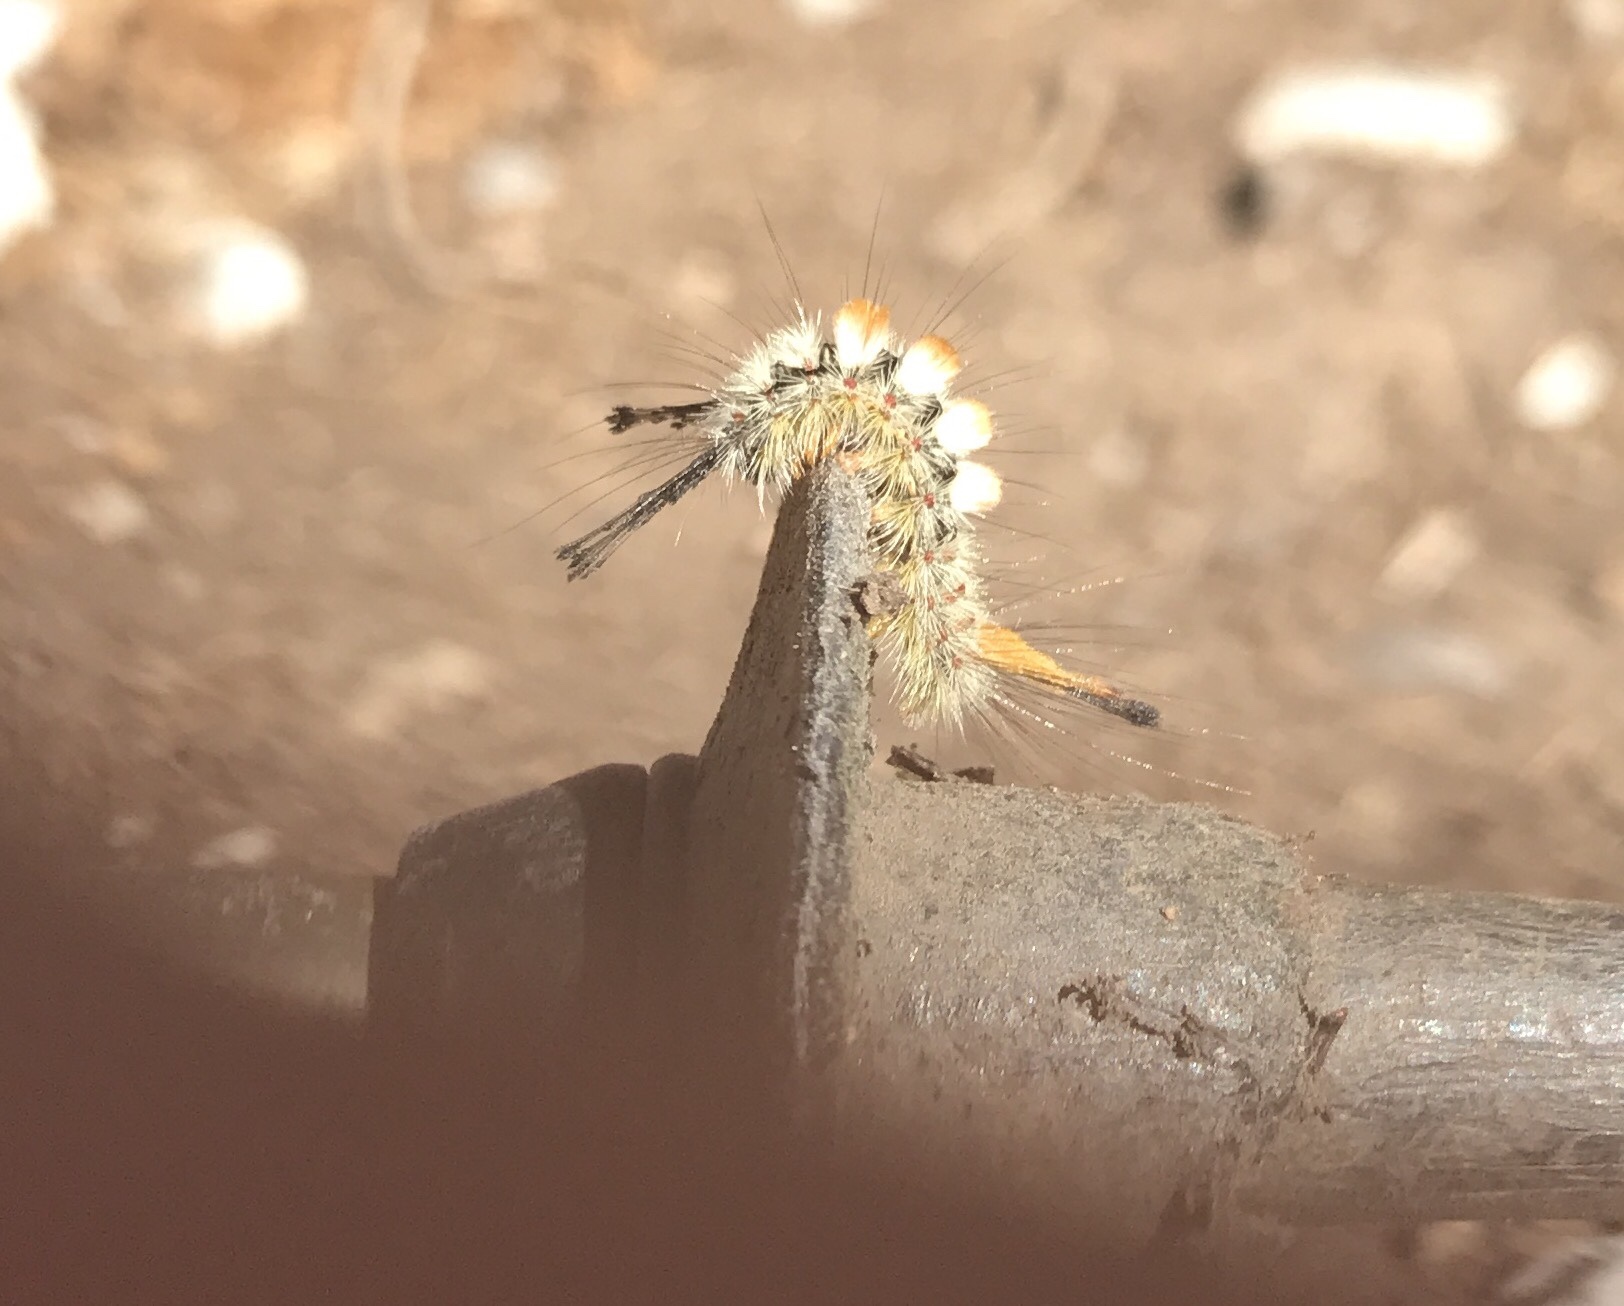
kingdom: Animalia
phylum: Arthropoda
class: Insecta
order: Lepidoptera
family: Erebidae
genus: Orgyia
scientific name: Orgyia pseudotsugata
